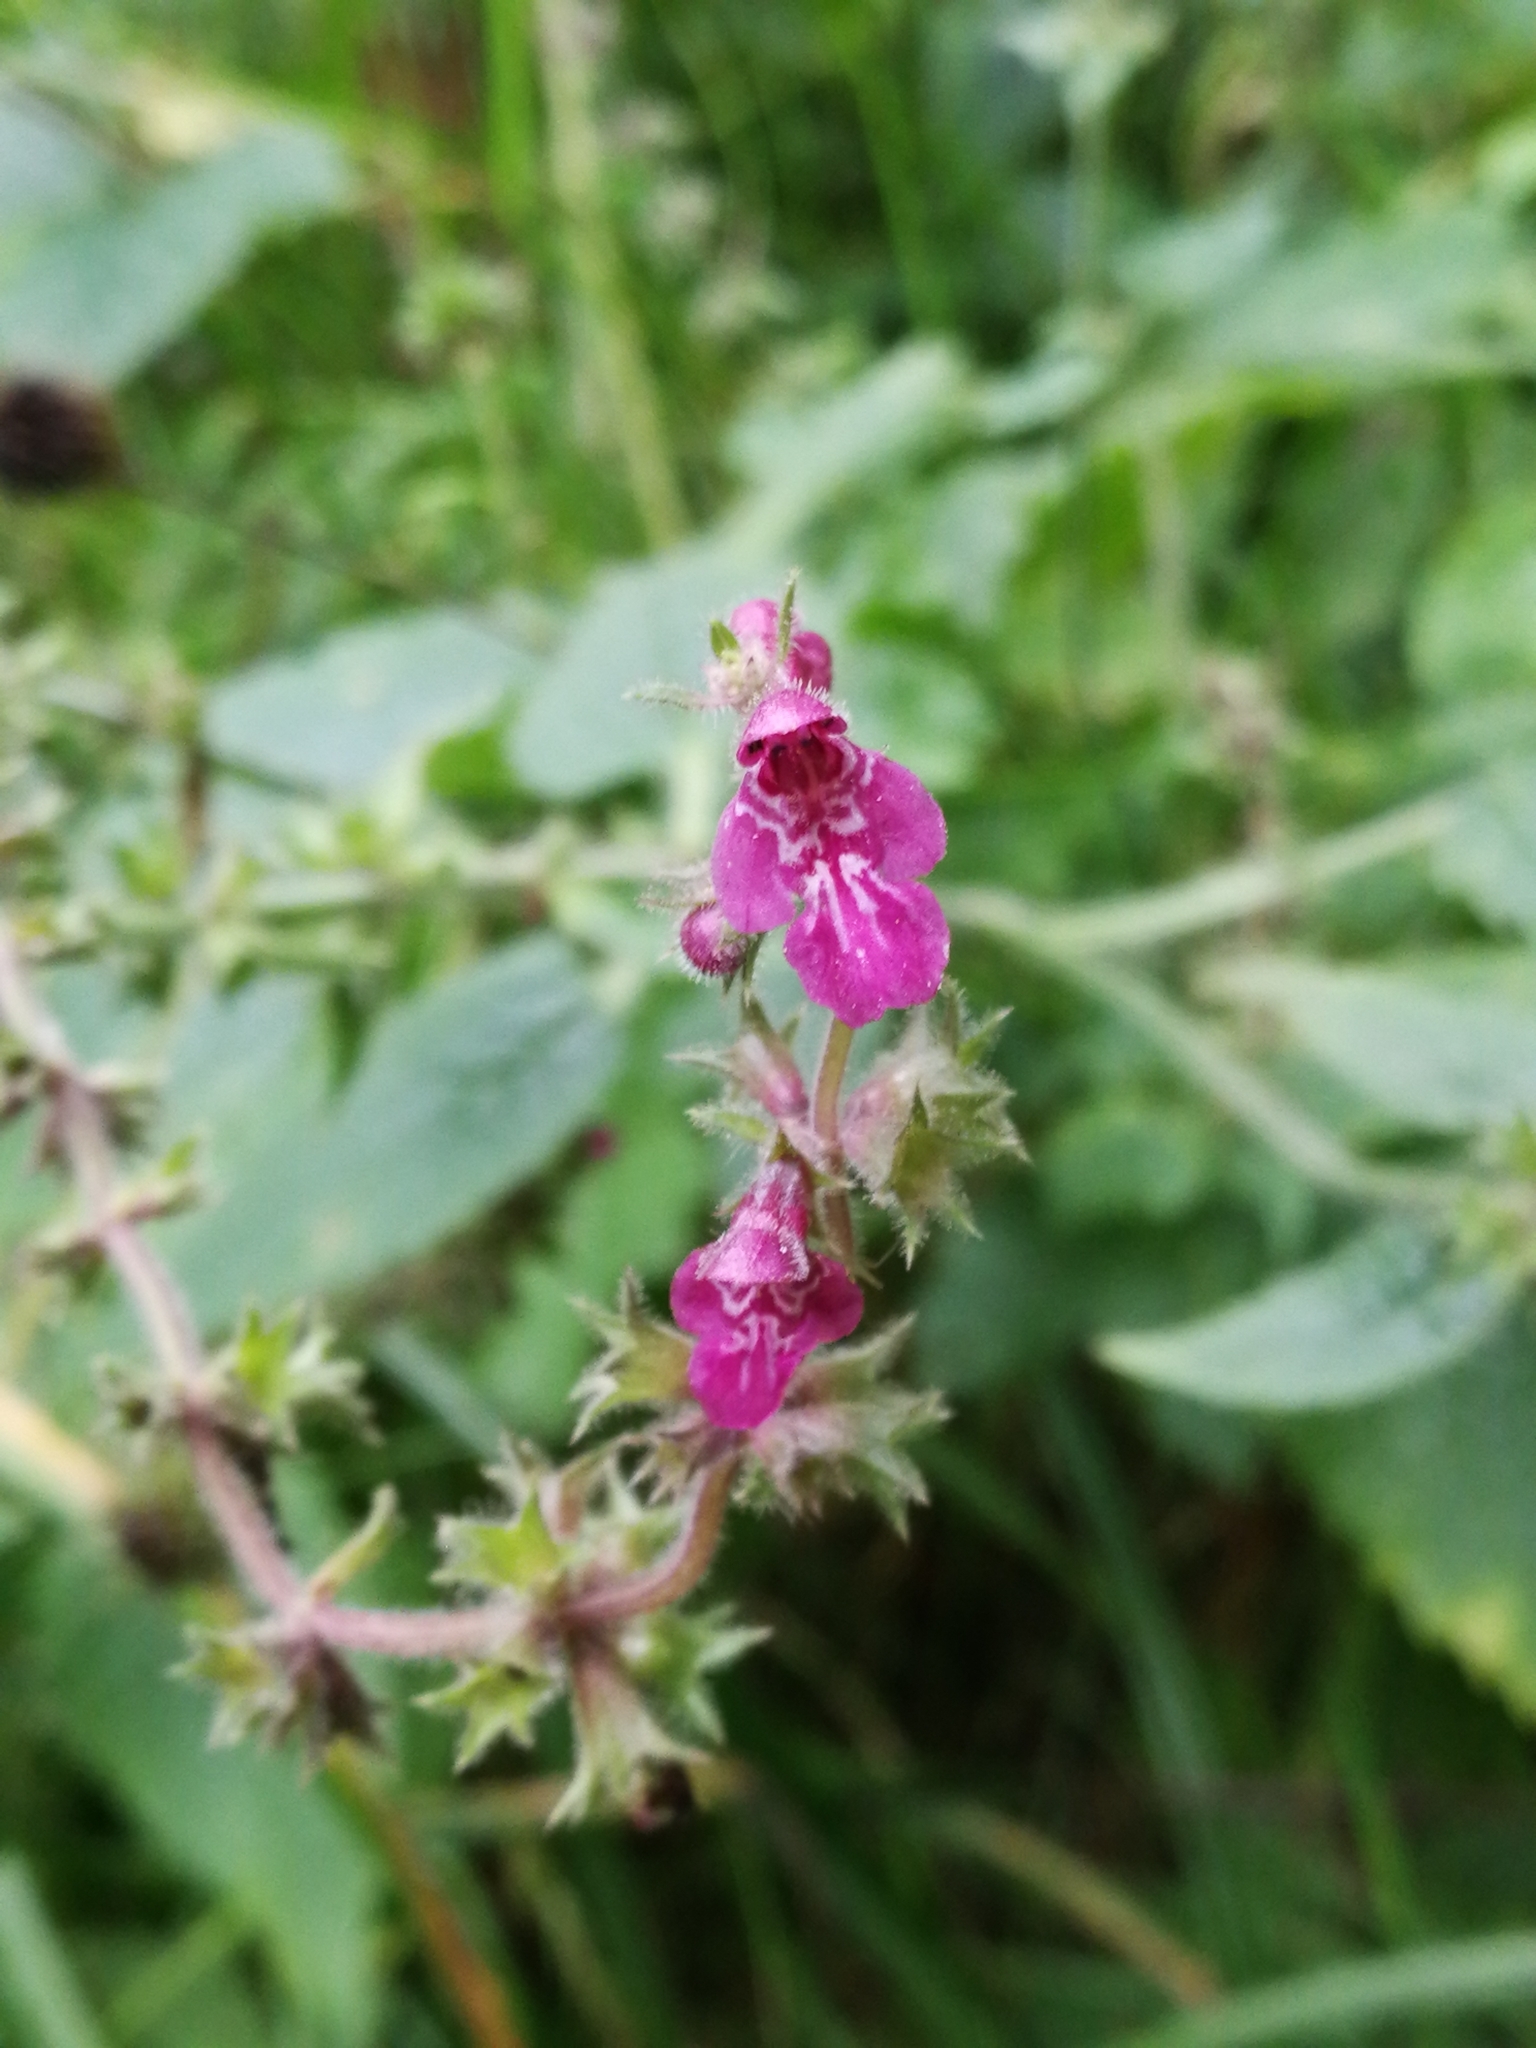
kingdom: Plantae
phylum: Tracheophyta
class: Magnoliopsida
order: Lamiales
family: Lamiaceae
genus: Stachys
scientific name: Stachys sylvatica
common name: Hedge woundwort
